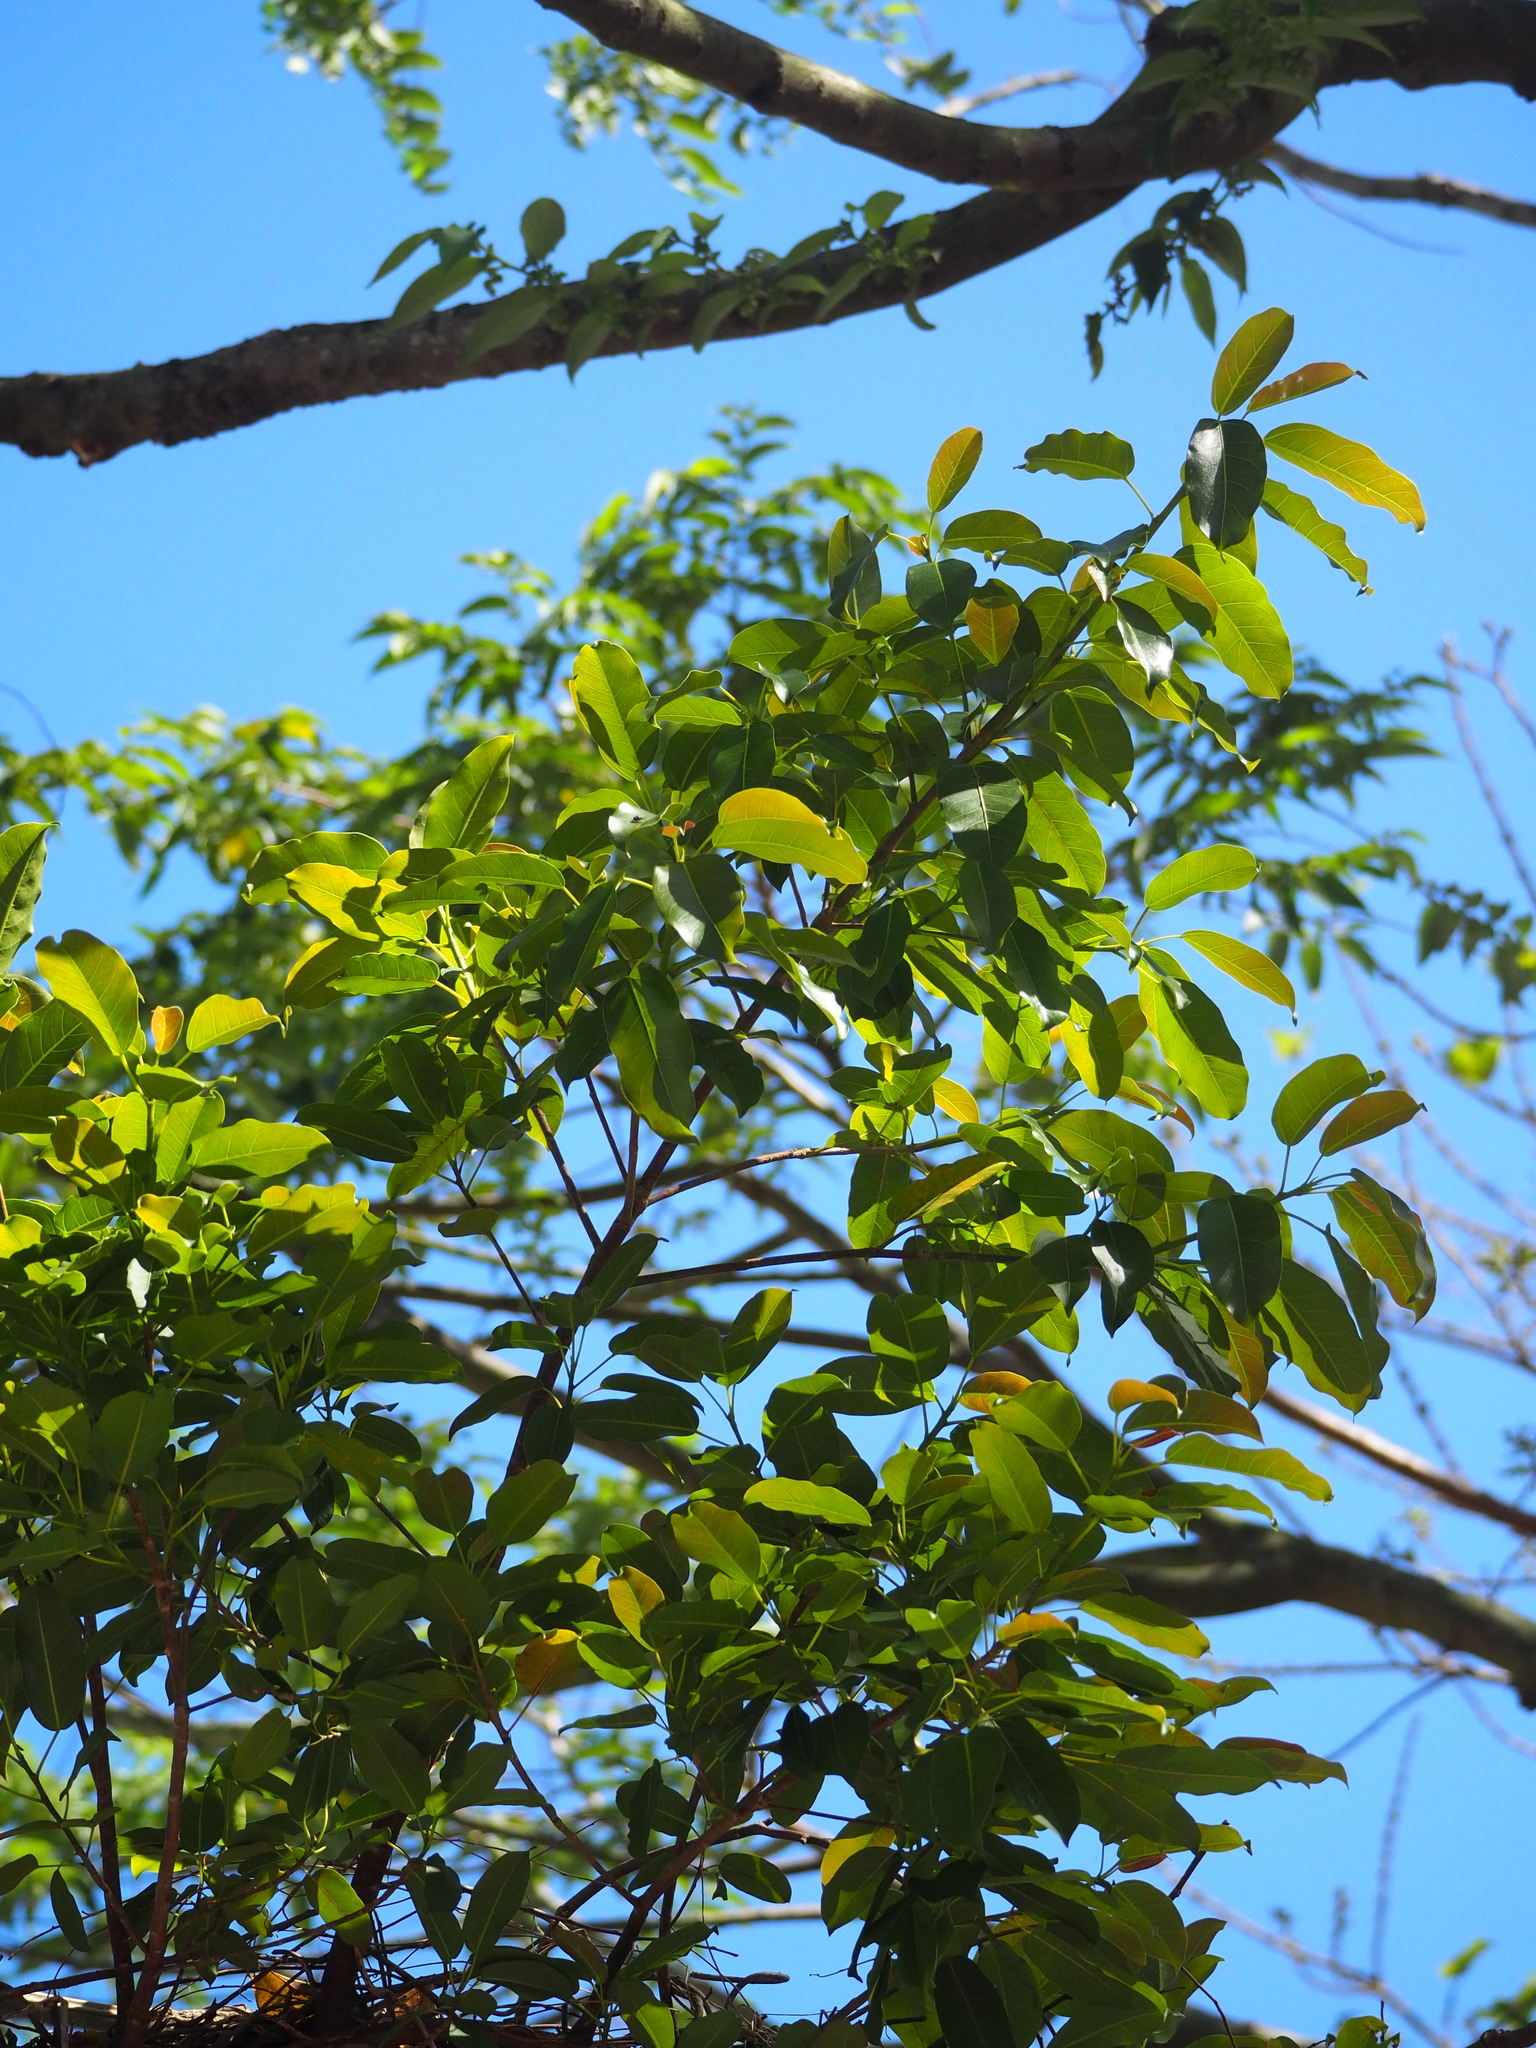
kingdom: Plantae
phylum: Tracheophyta
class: Magnoliopsida
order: Rosales
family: Moraceae
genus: Ficus
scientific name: Ficus subpisocarpa
